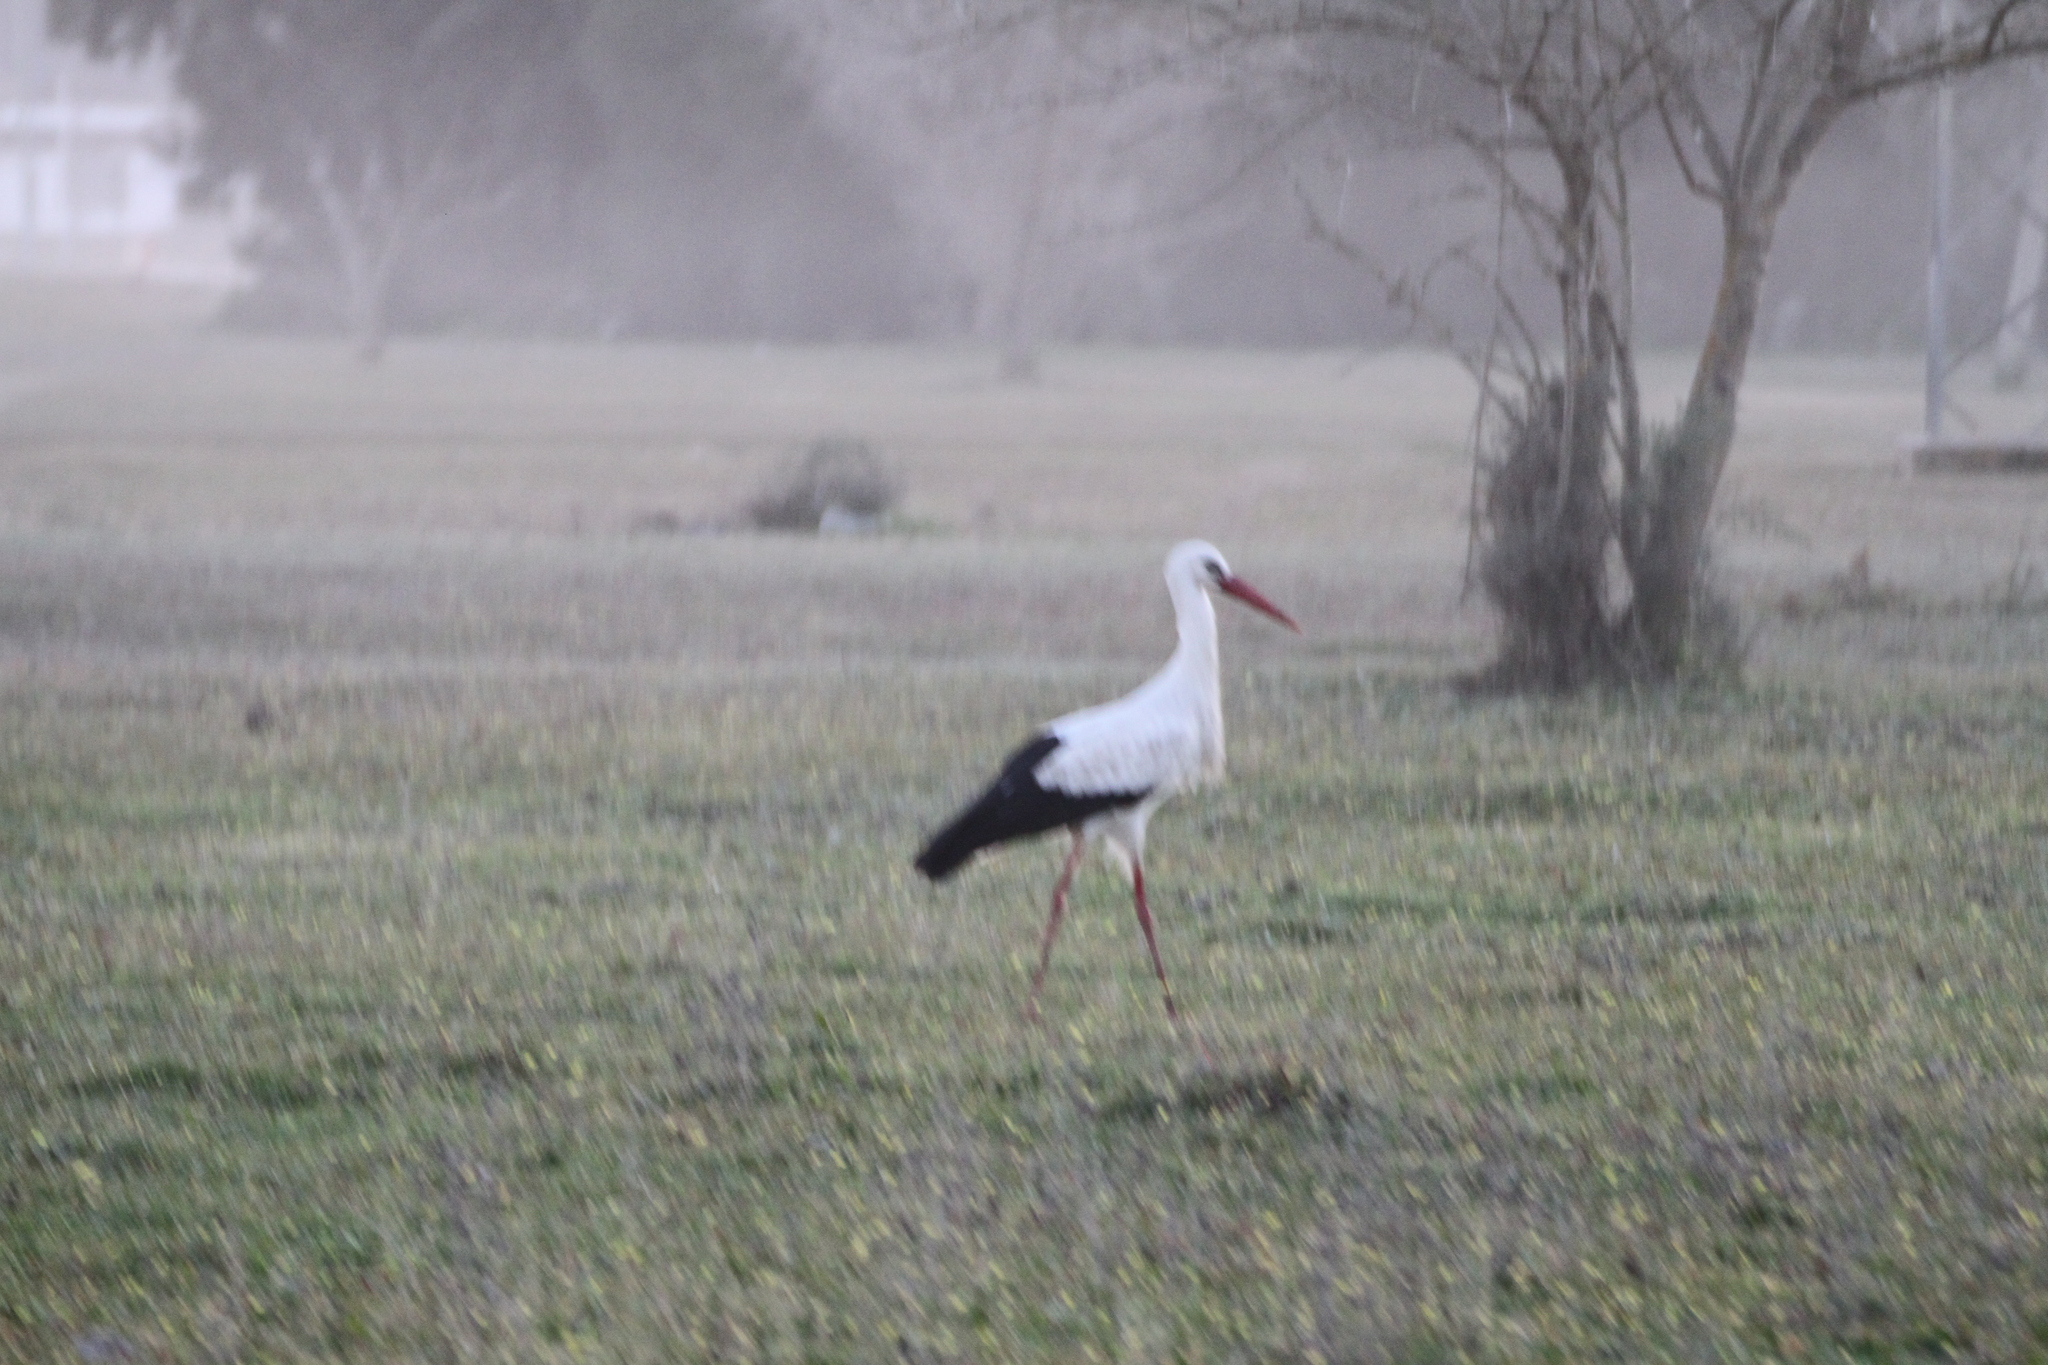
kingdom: Animalia
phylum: Chordata
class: Aves
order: Ciconiiformes
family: Ciconiidae
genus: Ciconia
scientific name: Ciconia ciconia
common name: White stork
